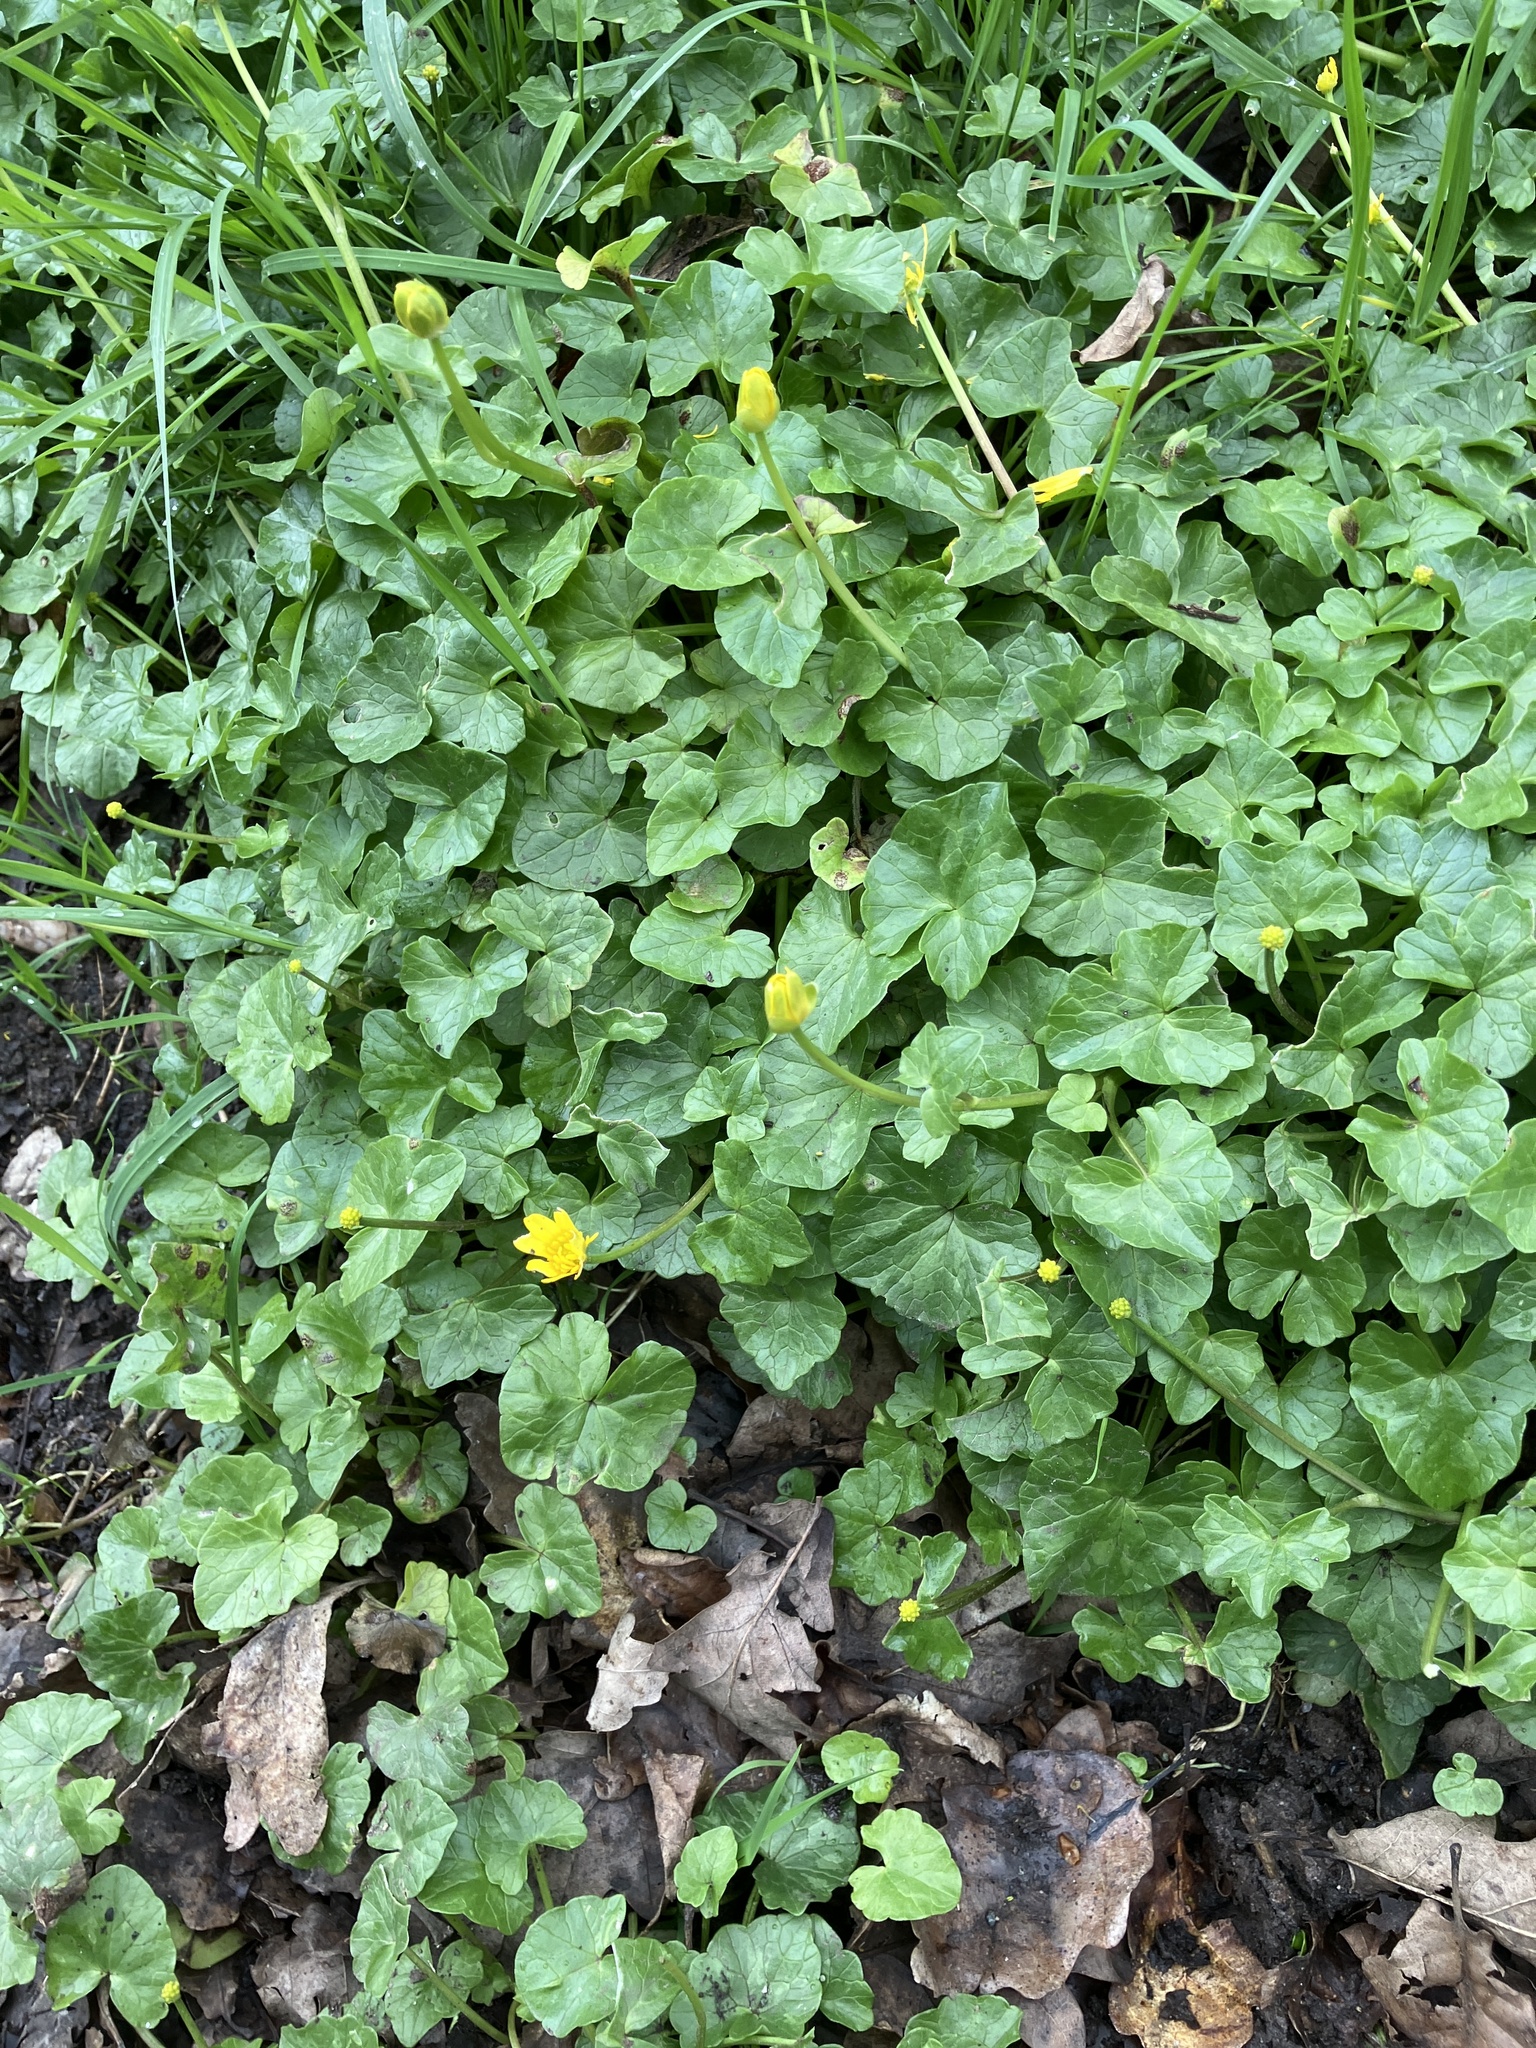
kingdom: Plantae
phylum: Tracheophyta
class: Magnoliopsida
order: Ranunculales
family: Ranunculaceae
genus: Ficaria
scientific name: Ficaria verna
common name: Lesser celandine
